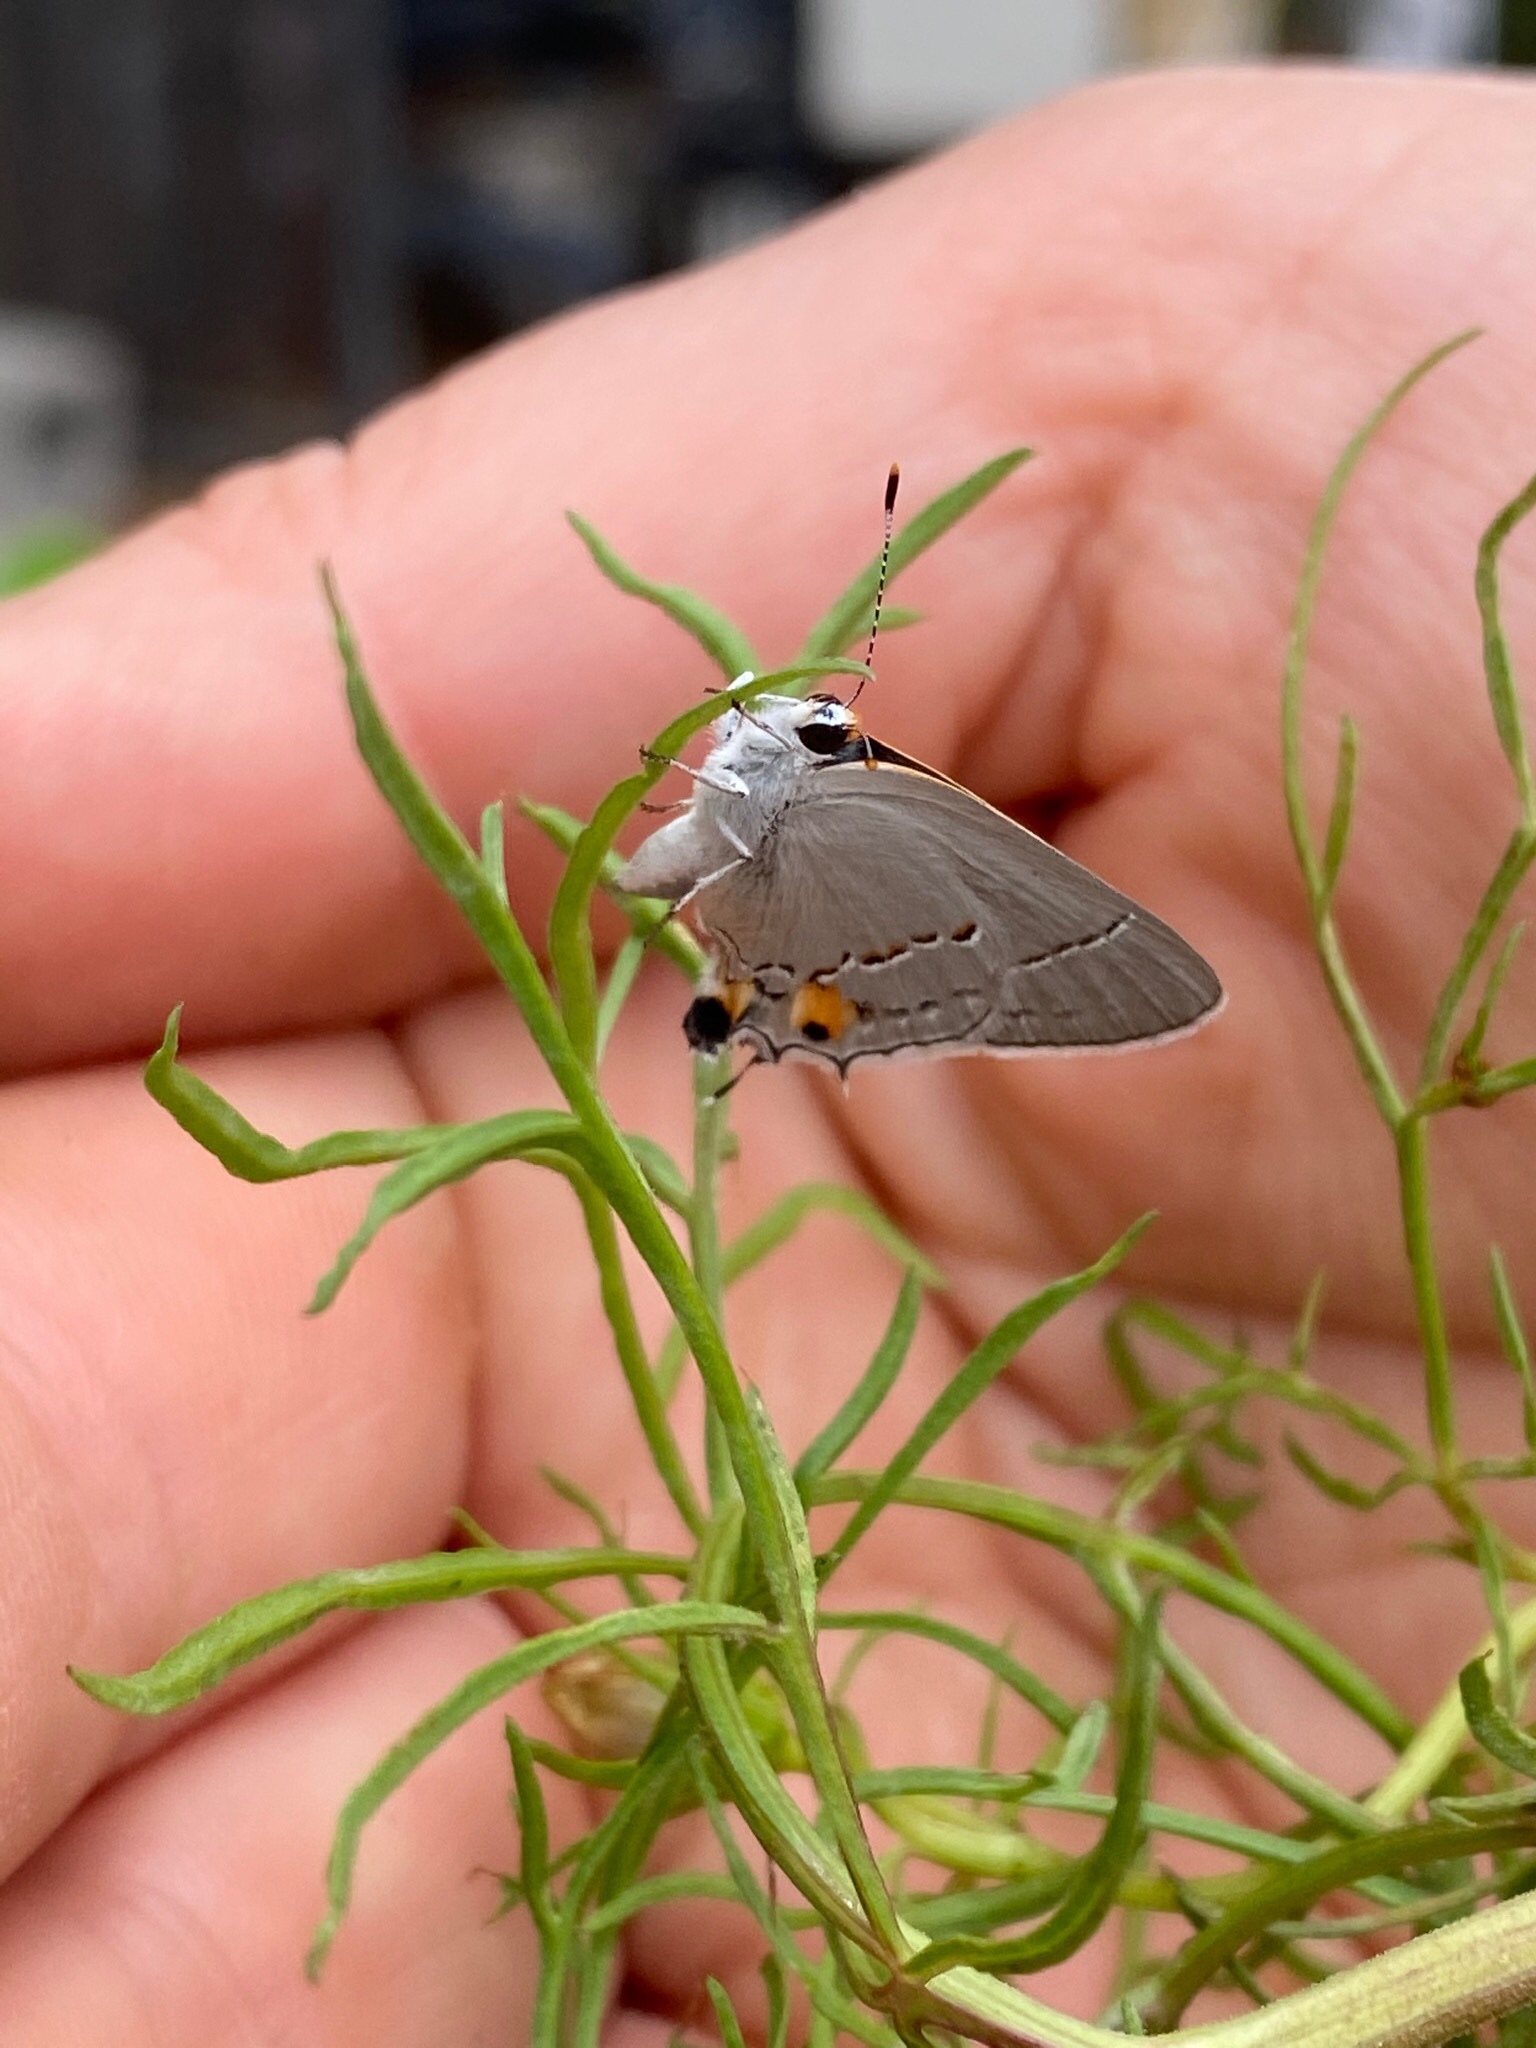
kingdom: Animalia
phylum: Arthropoda
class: Insecta
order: Lepidoptera
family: Lycaenidae
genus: Strymon
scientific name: Strymon melinus
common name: Gray hairstreak
